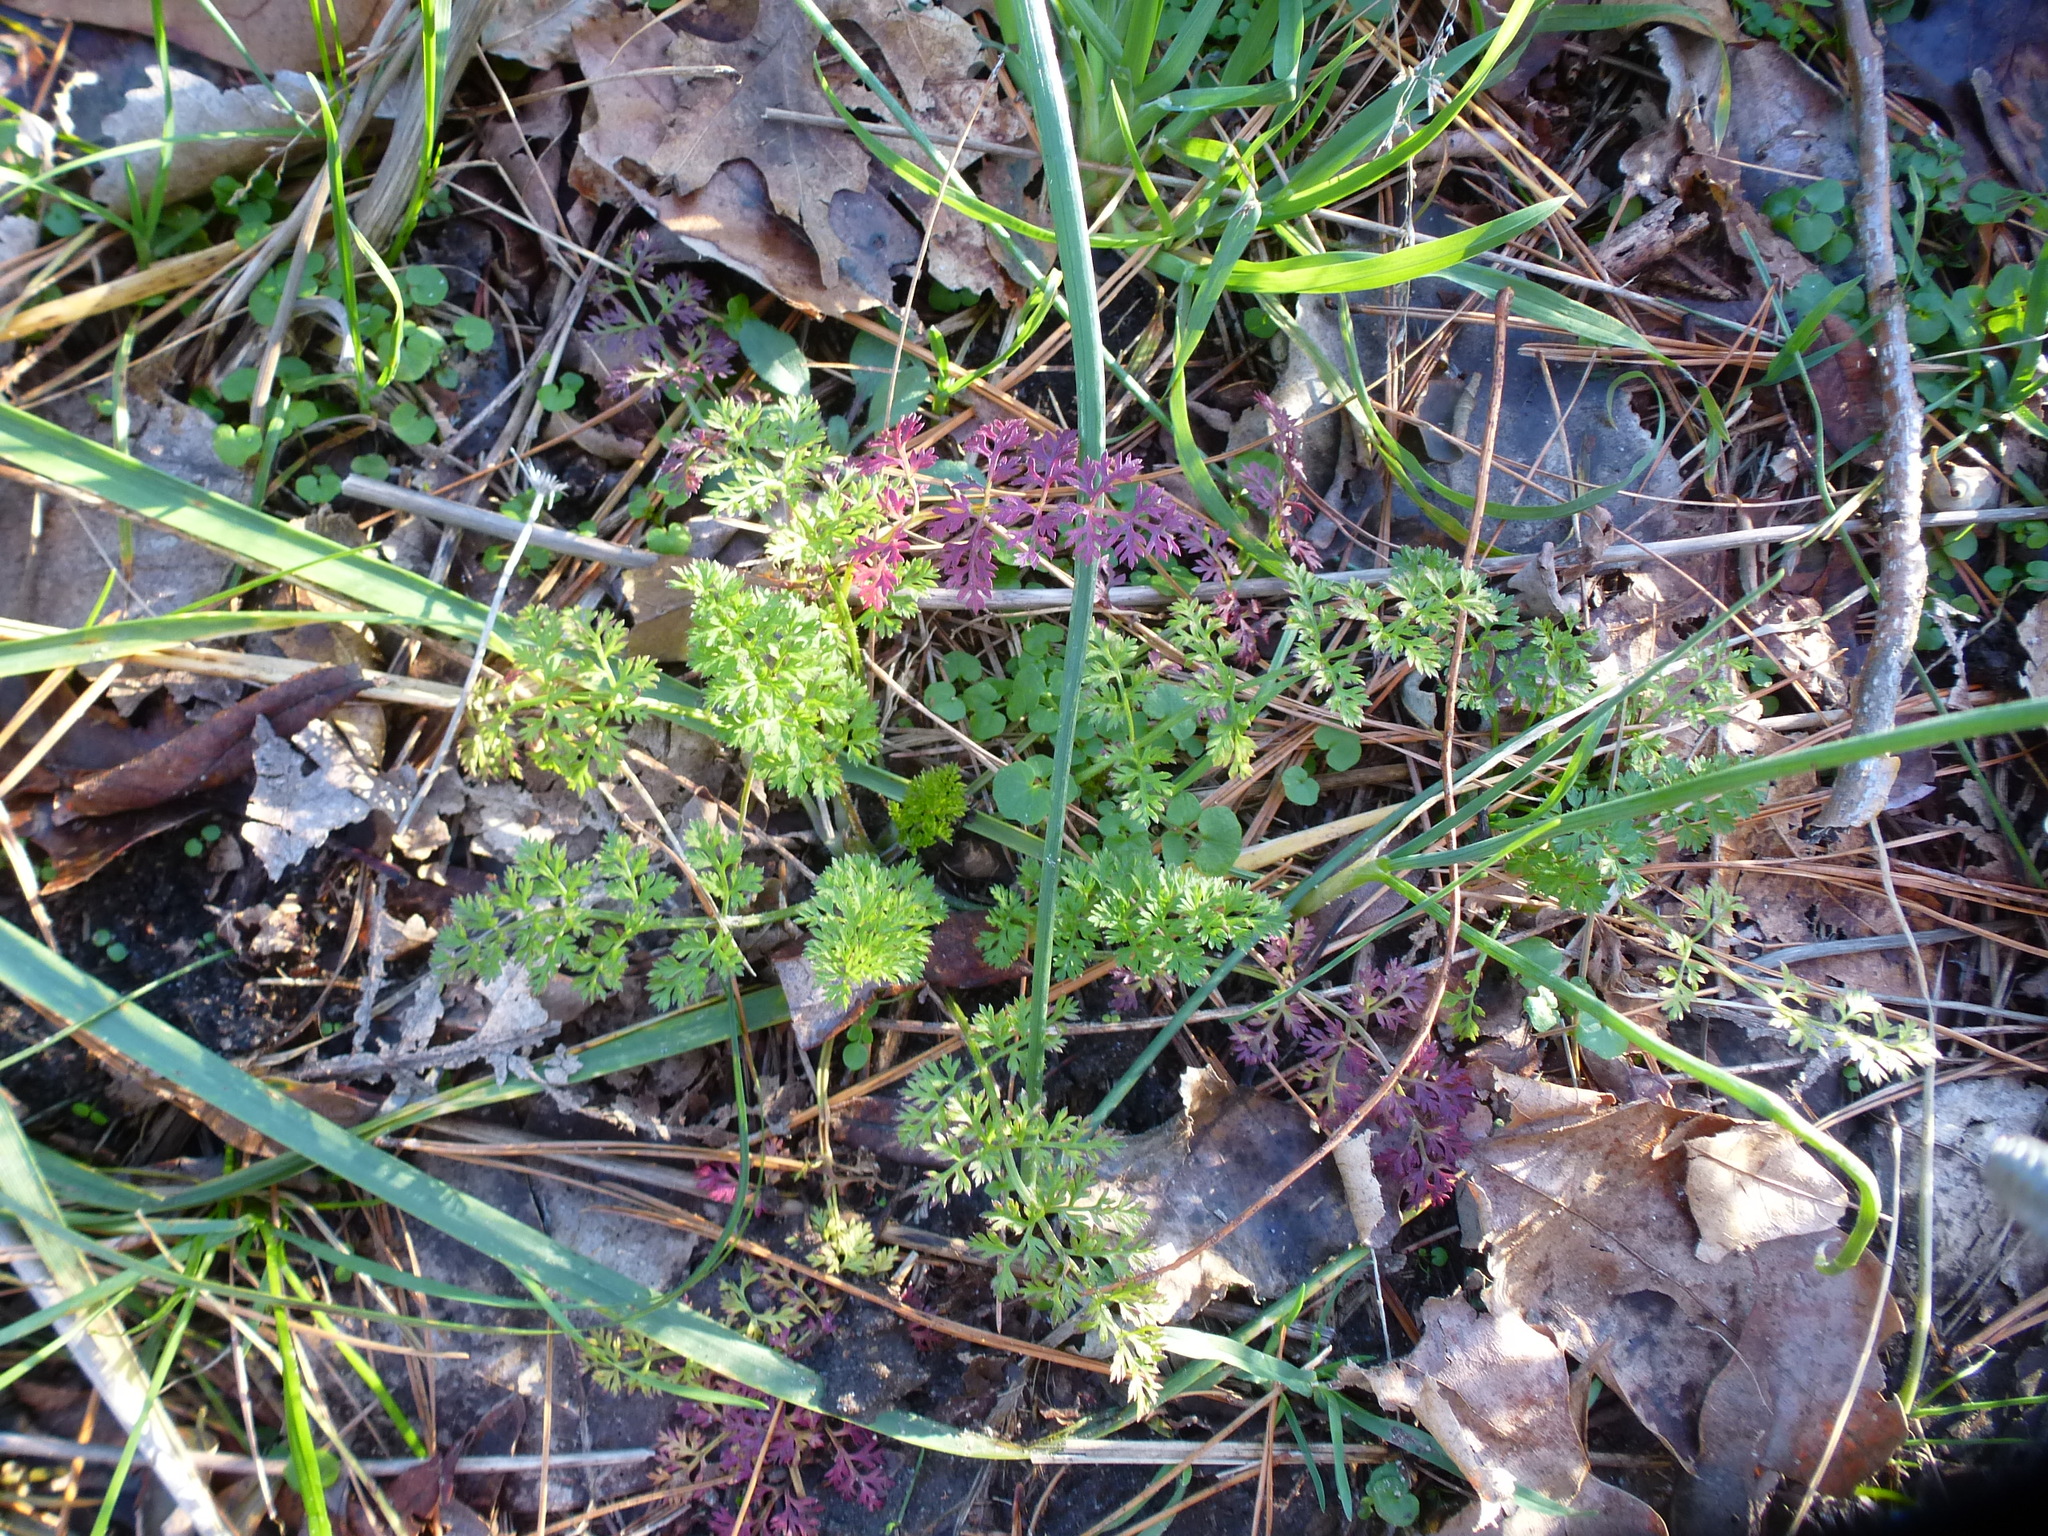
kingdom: Plantae
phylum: Tracheophyta
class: Magnoliopsida
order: Apiales
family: Apiaceae
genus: Daucus
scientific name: Daucus carota
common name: Wild carrot
